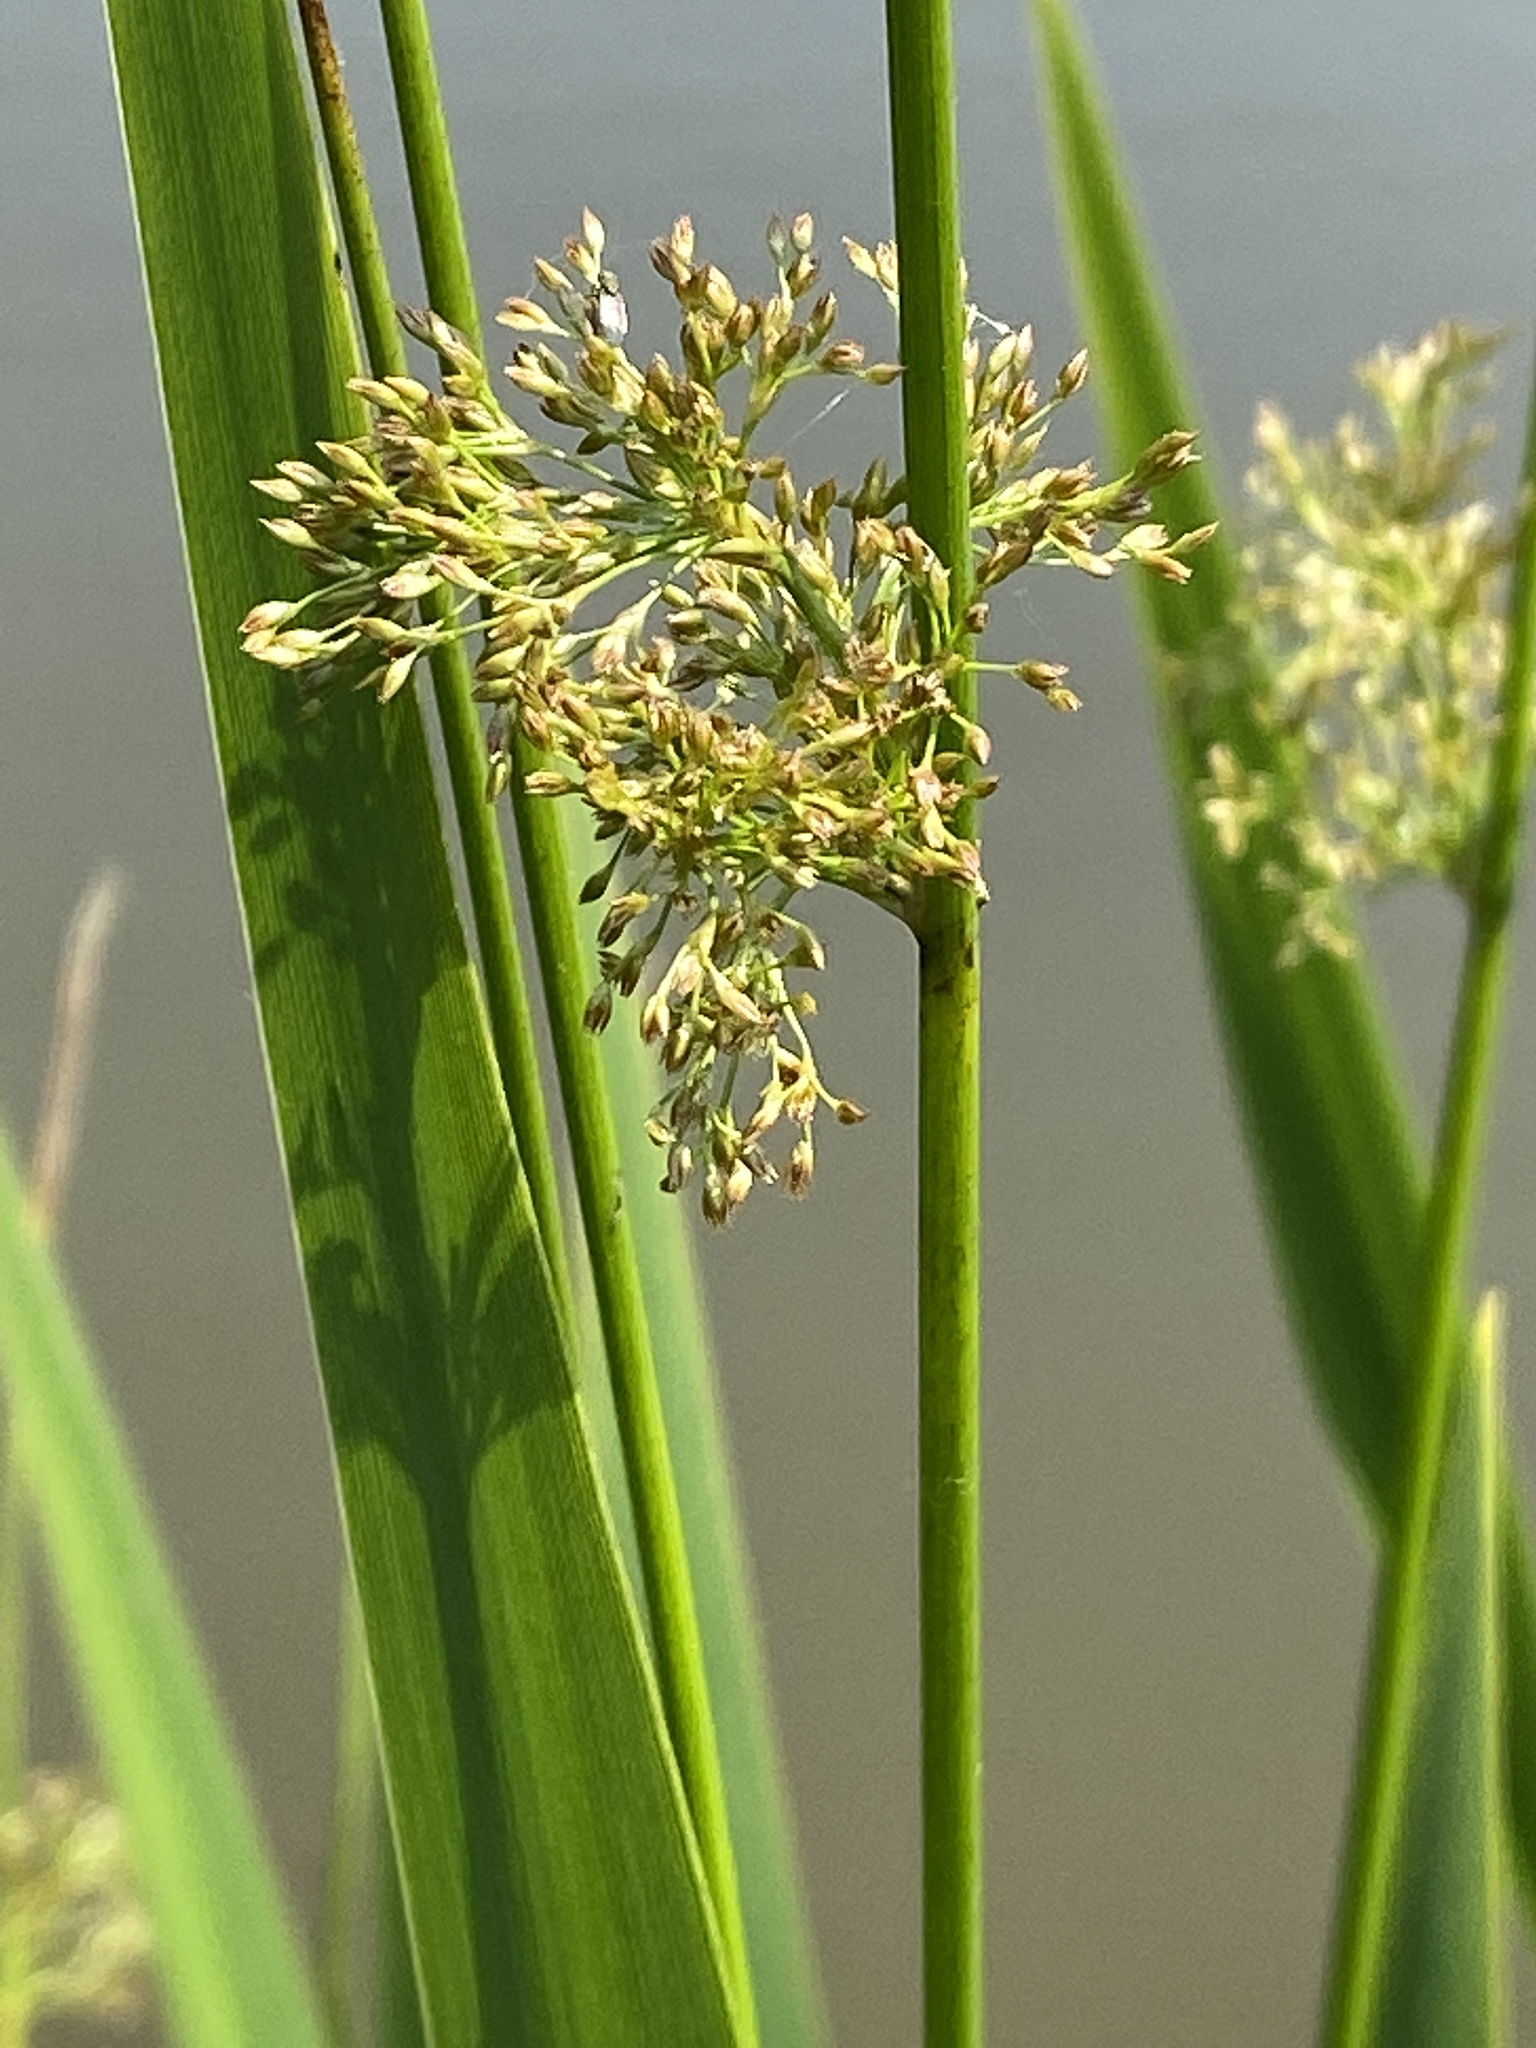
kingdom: Plantae
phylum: Tracheophyta
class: Liliopsida
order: Poales
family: Juncaceae
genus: Juncus
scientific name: Juncus effusus
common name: Soft rush
